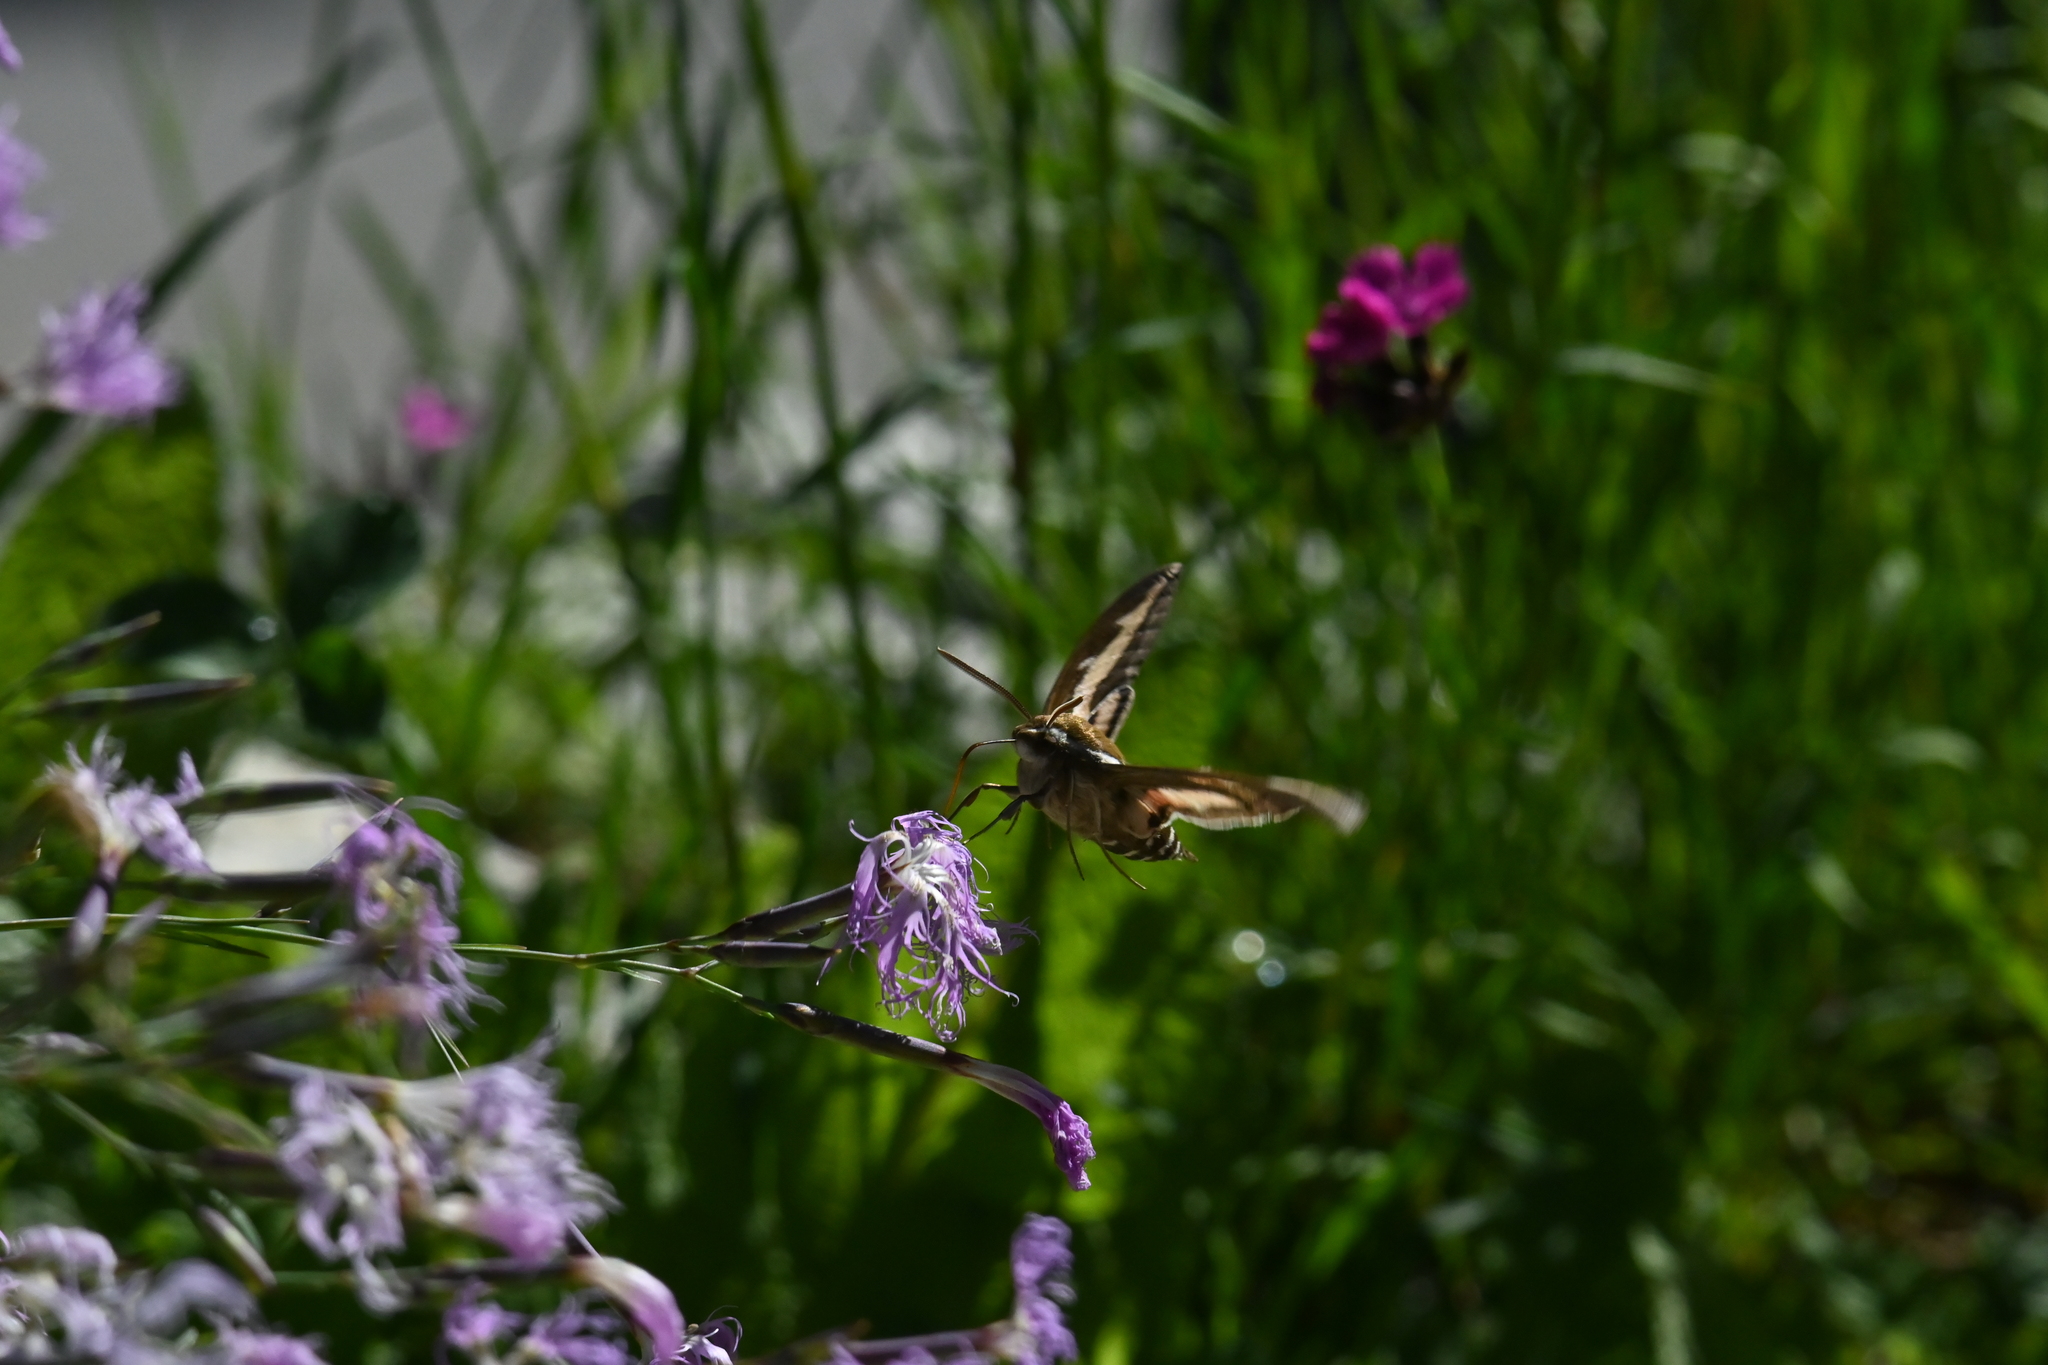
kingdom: Animalia
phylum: Arthropoda
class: Insecta
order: Lepidoptera
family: Sphingidae
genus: Hyles
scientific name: Hyles gallii
